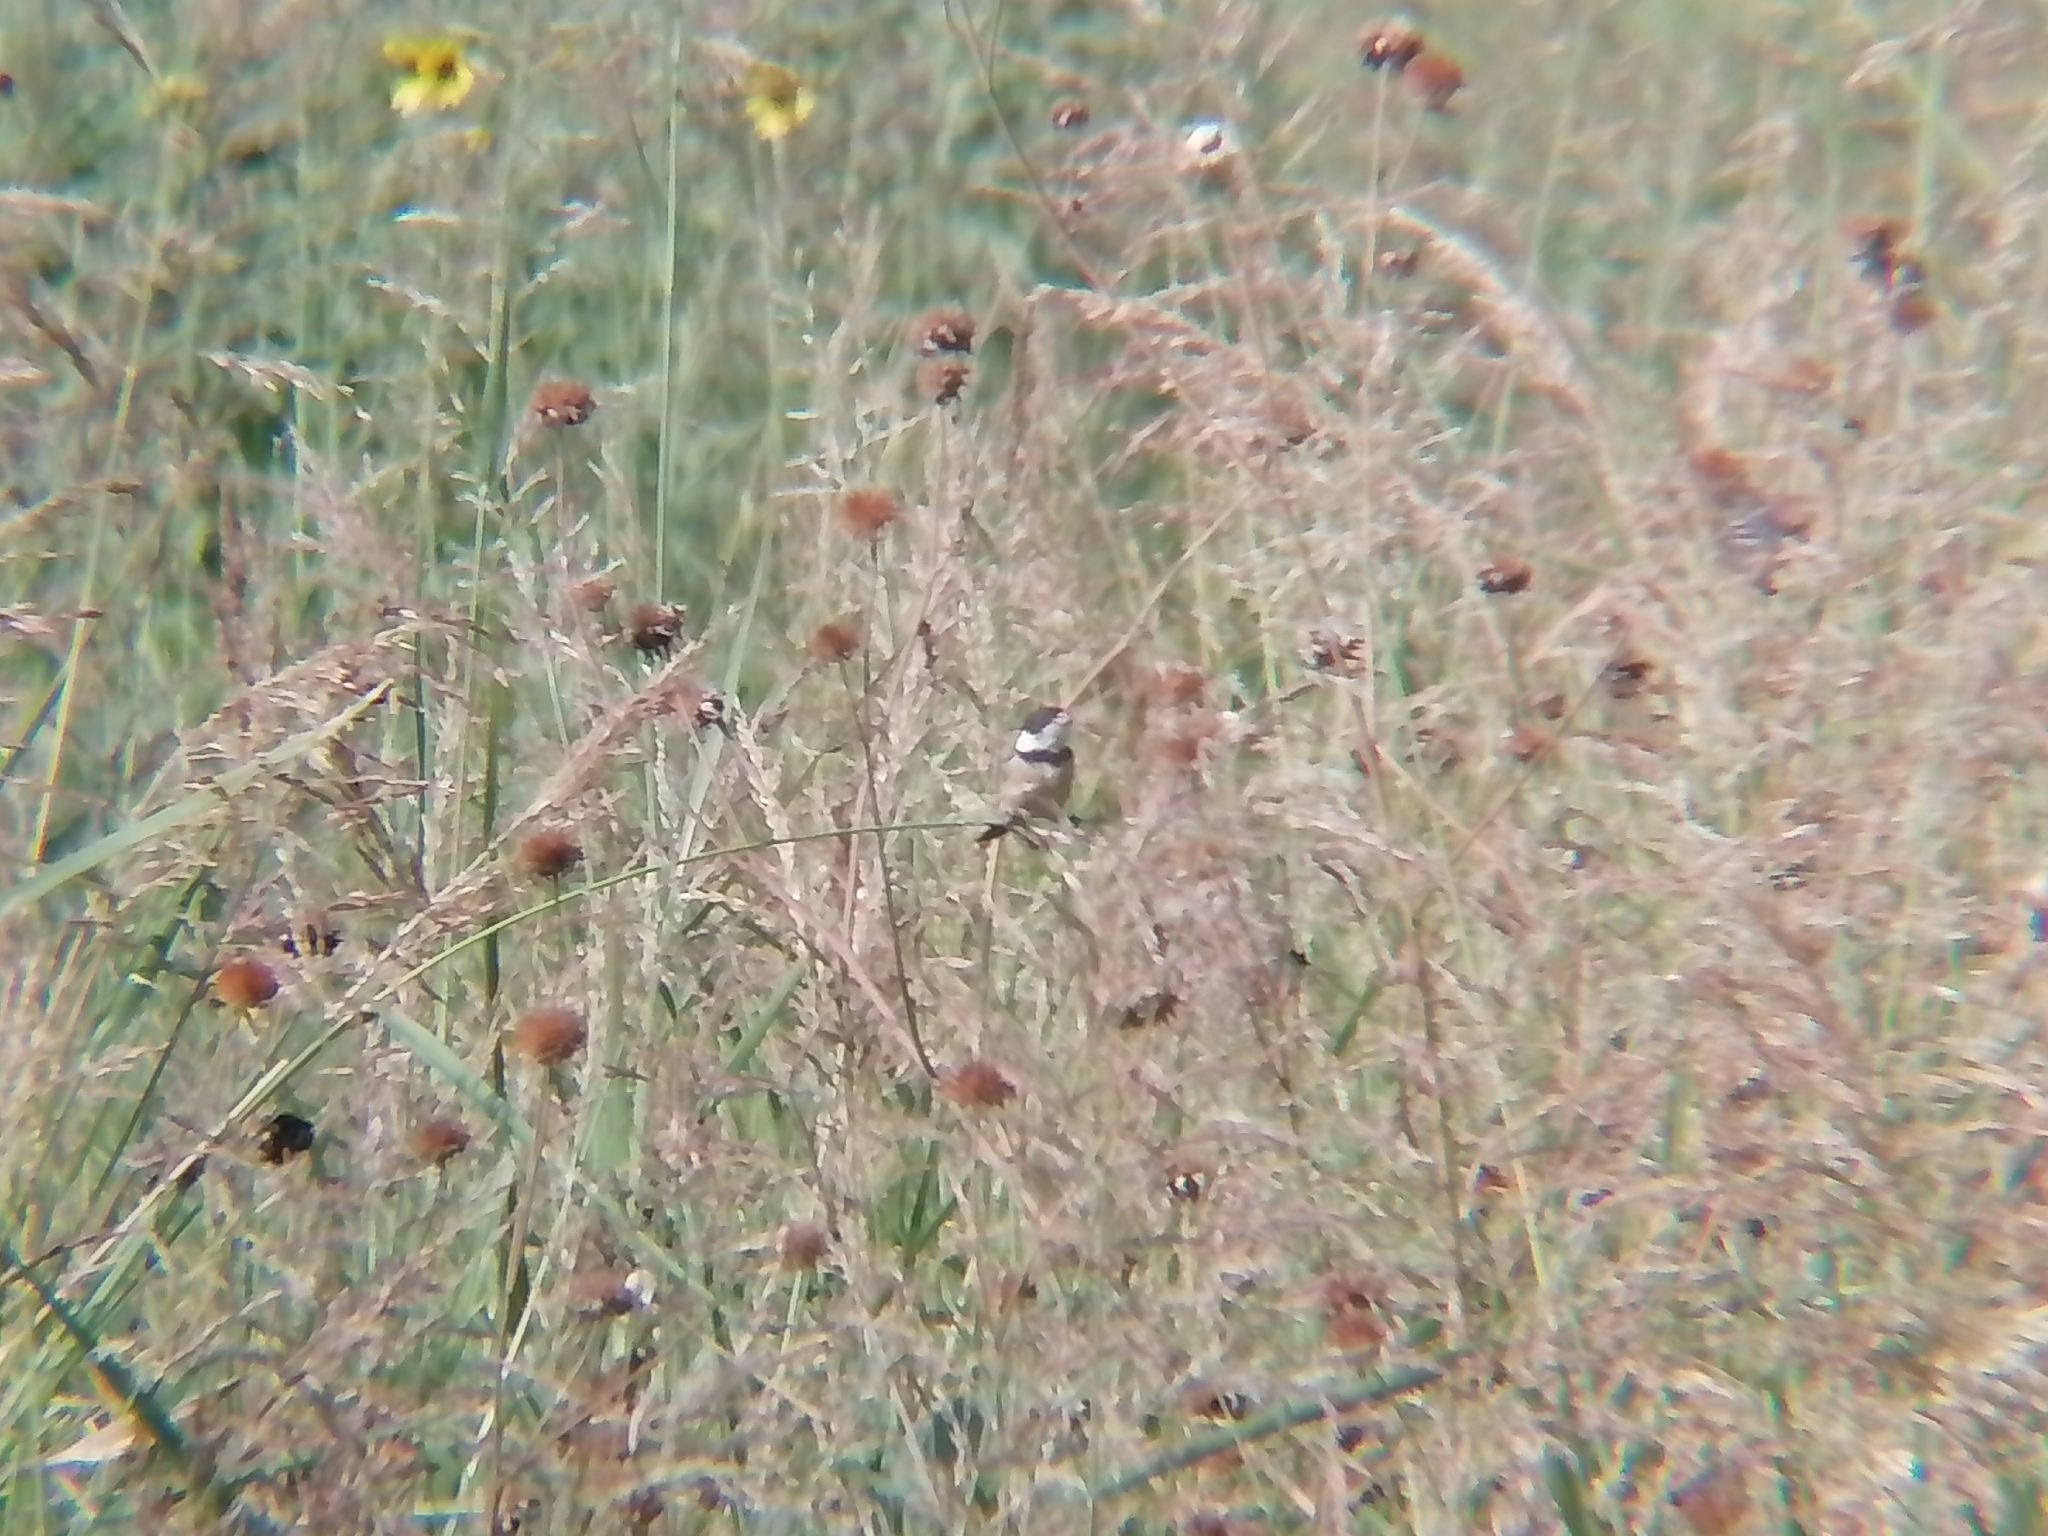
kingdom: Animalia
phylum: Chordata
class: Aves
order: Passeriformes
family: Thraupidae
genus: Sporophila
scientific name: Sporophila torqueola
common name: White-collared seedeater
